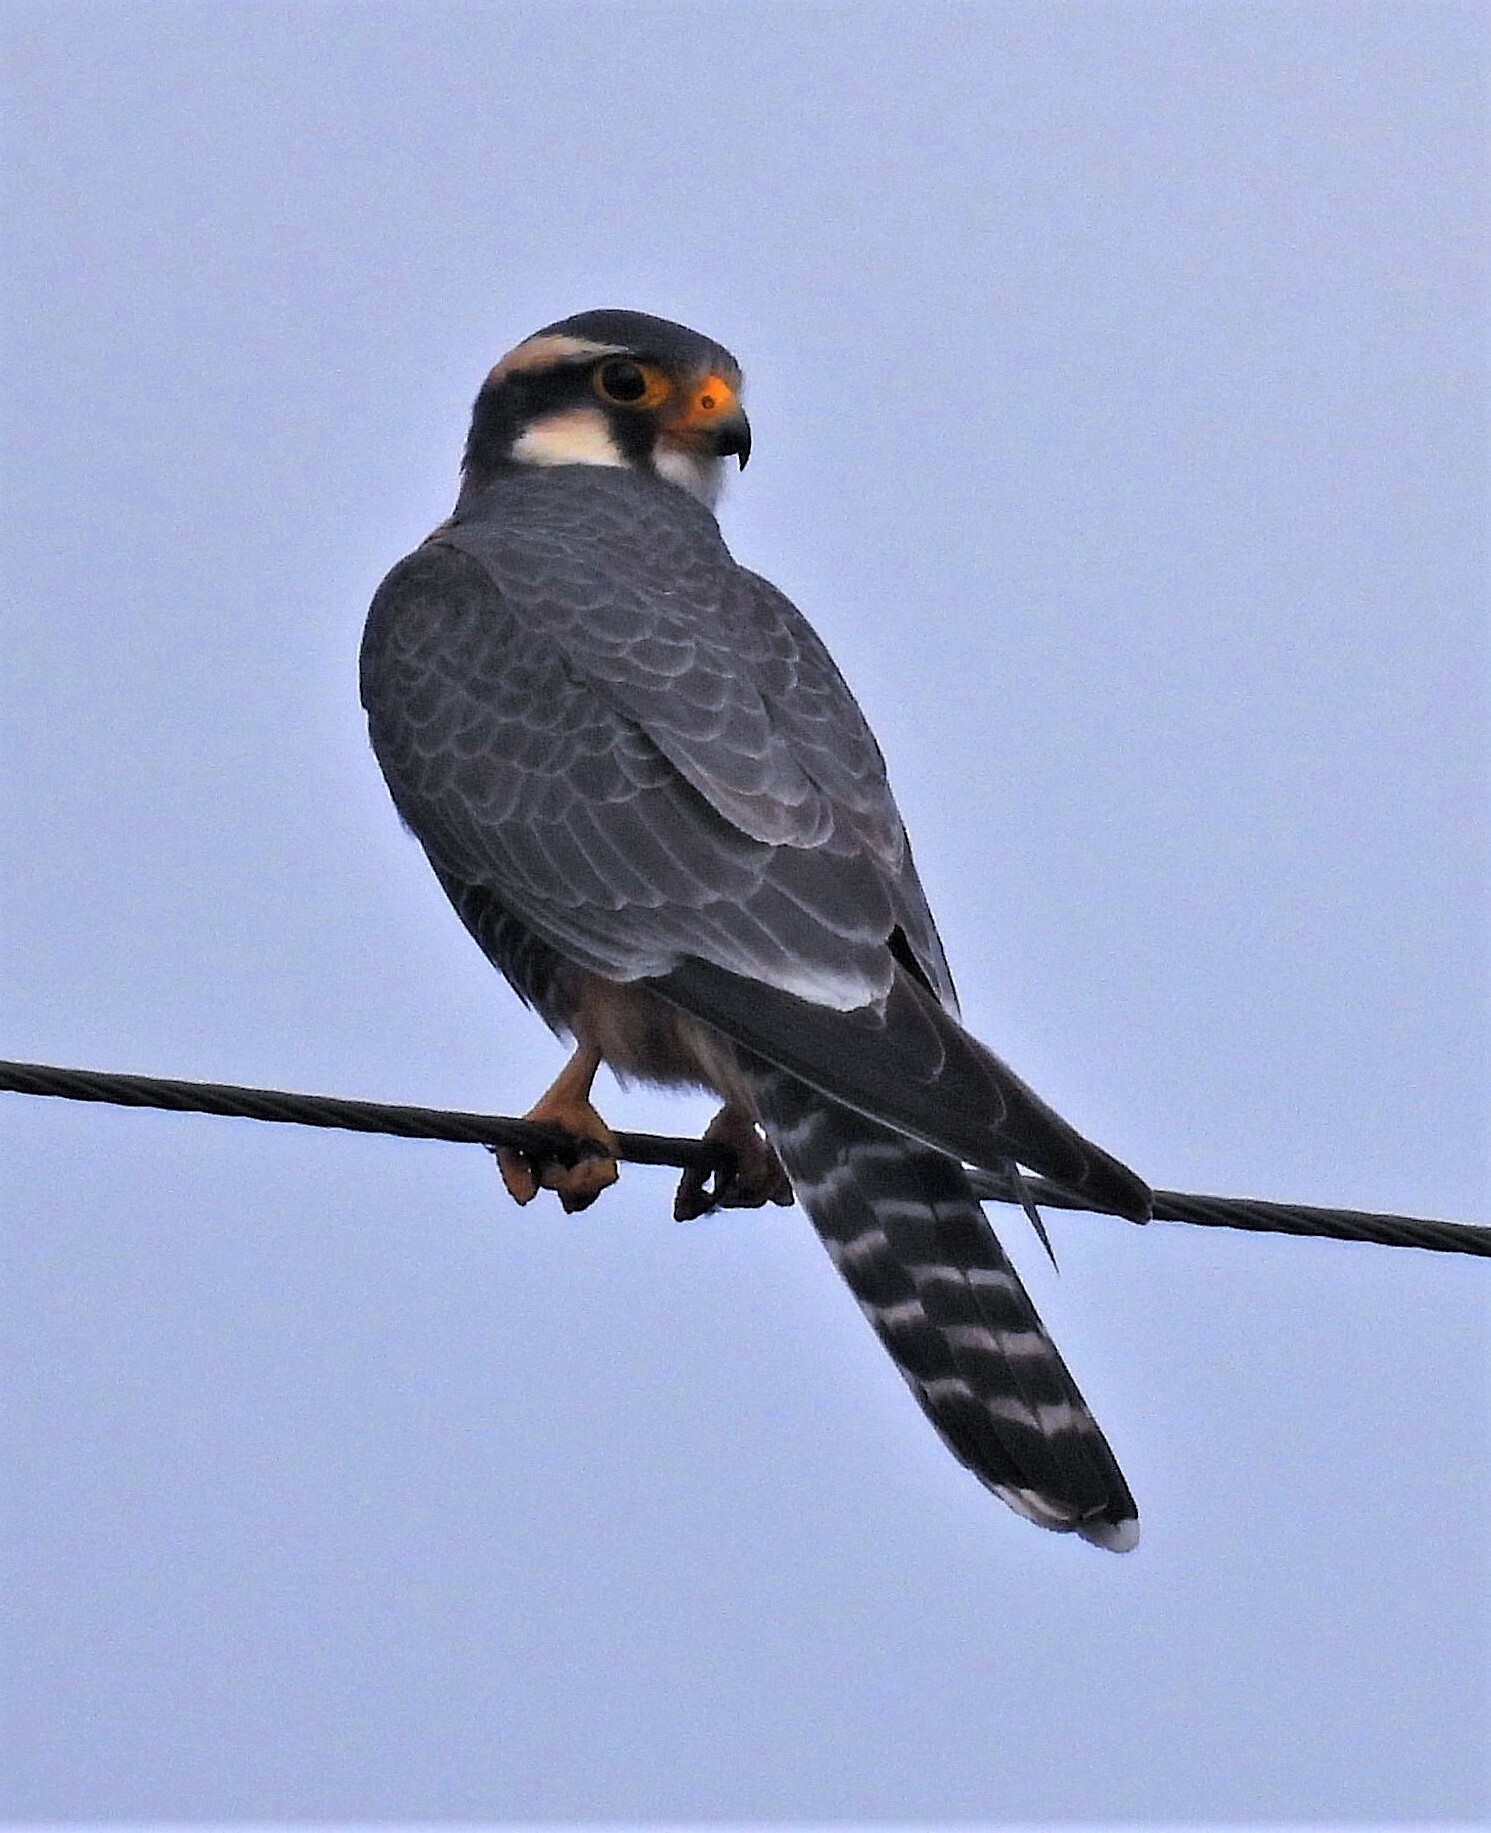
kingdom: Animalia
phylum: Chordata
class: Aves
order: Falconiformes
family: Falconidae
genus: Falco
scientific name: Falco femoralis
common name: Aplomado falcon
